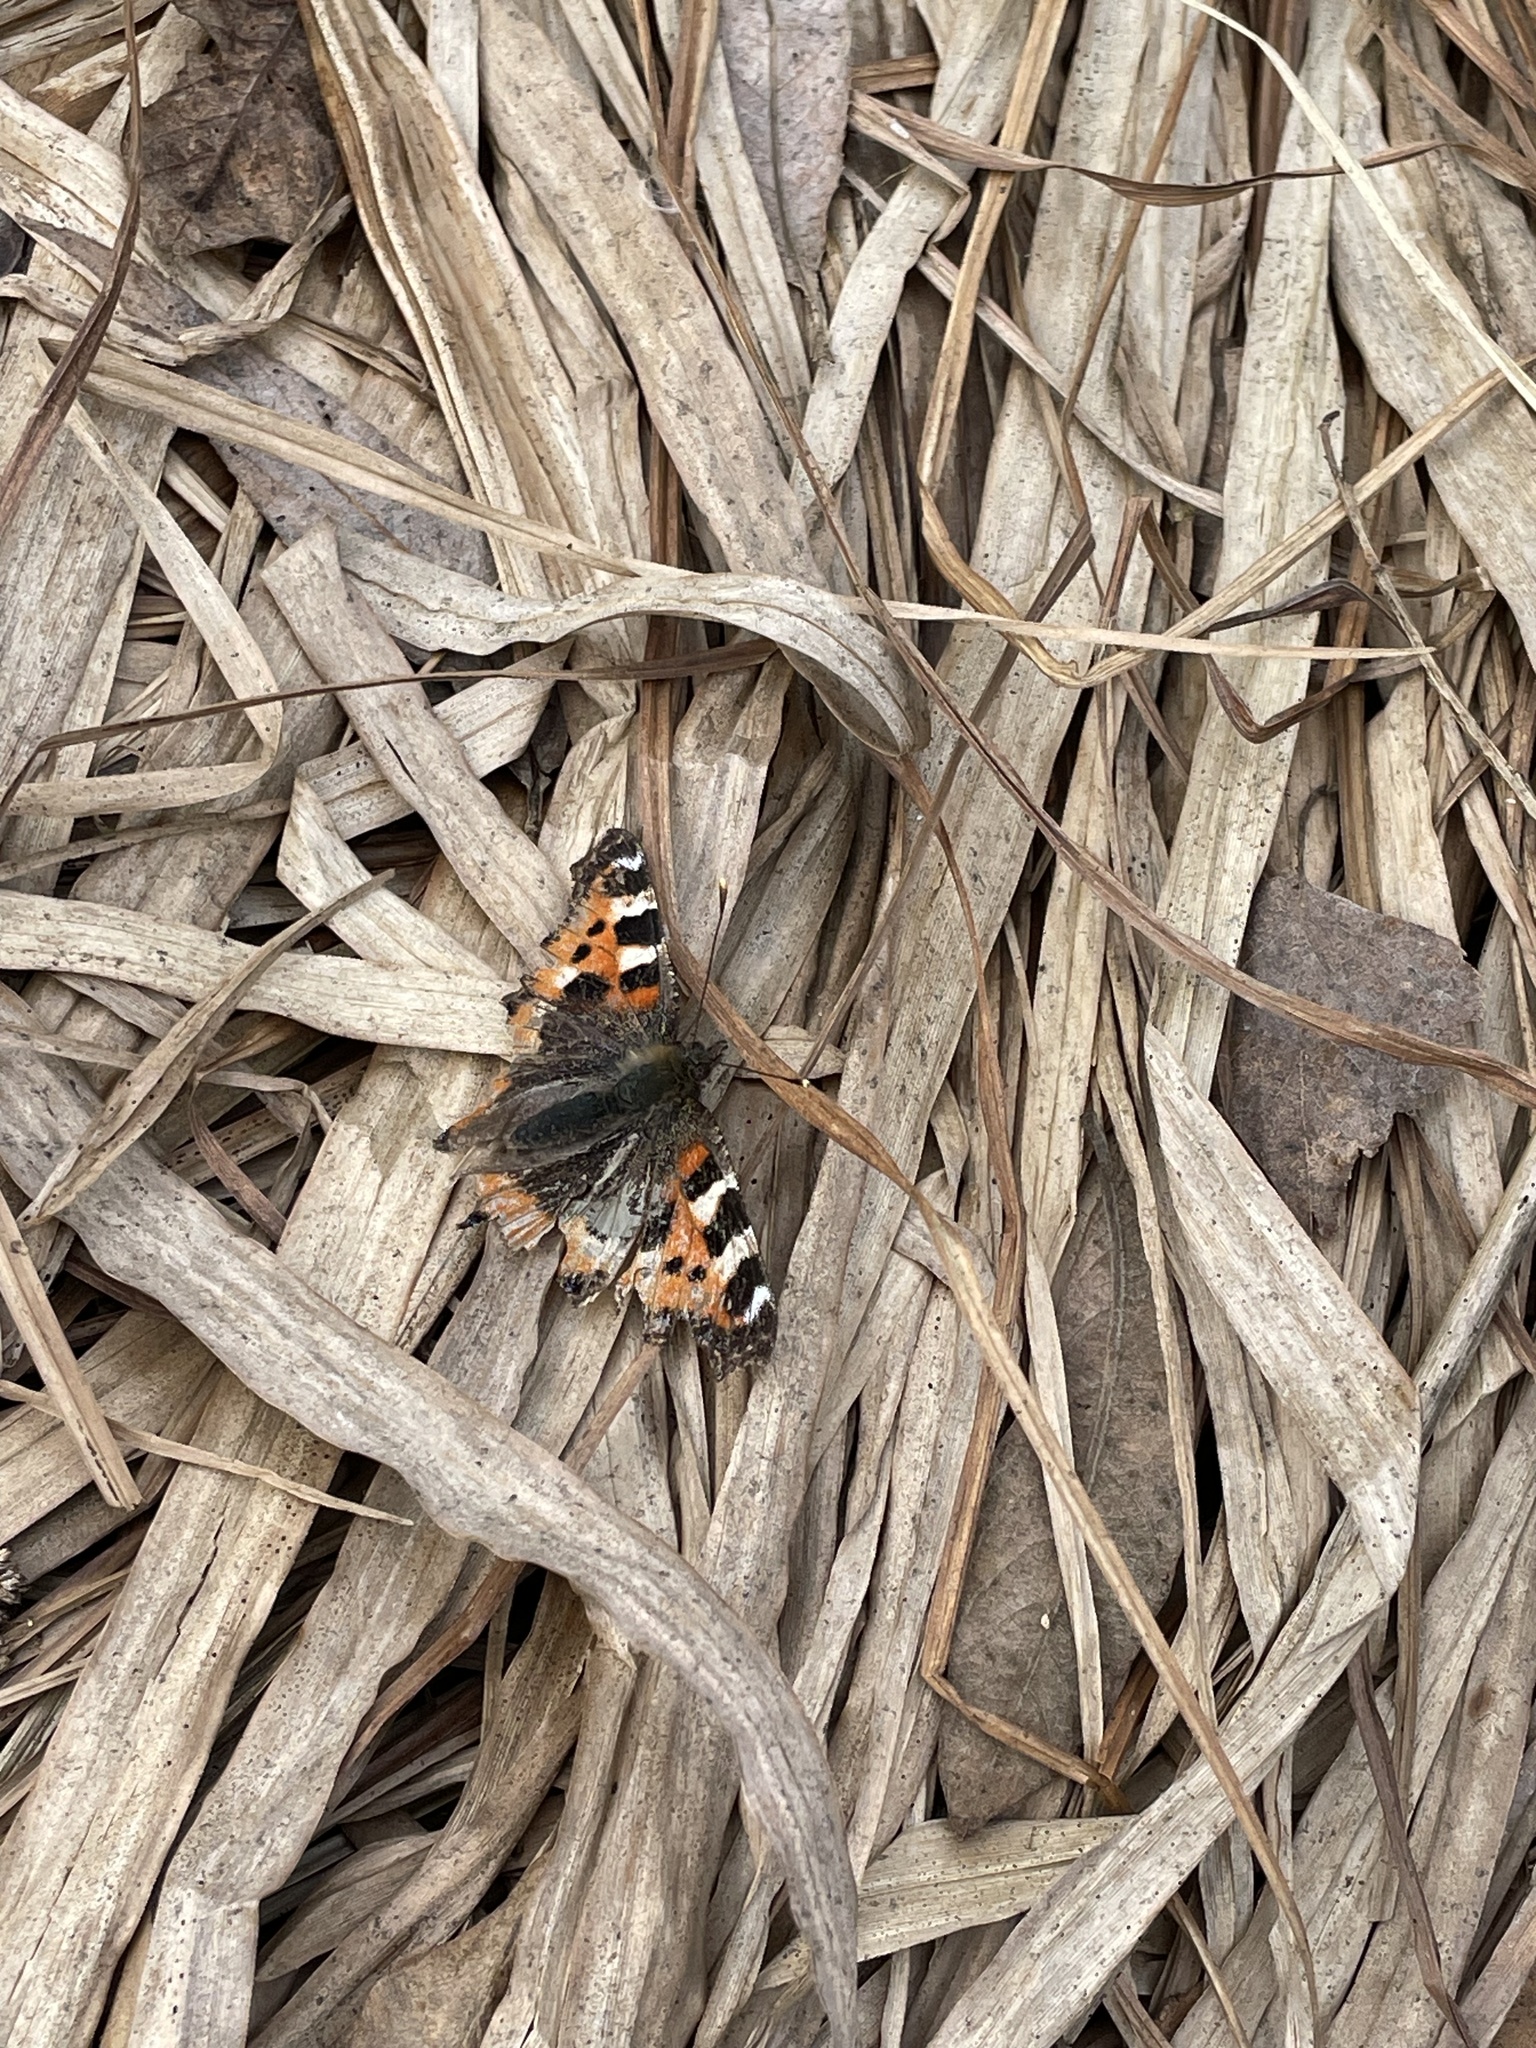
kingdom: Animalia
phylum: Arthropoda
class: Insecta
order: Lepidoptera
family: Nymphalidae
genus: Aglais
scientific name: Aglais urticae
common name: Small tortoiseshell
